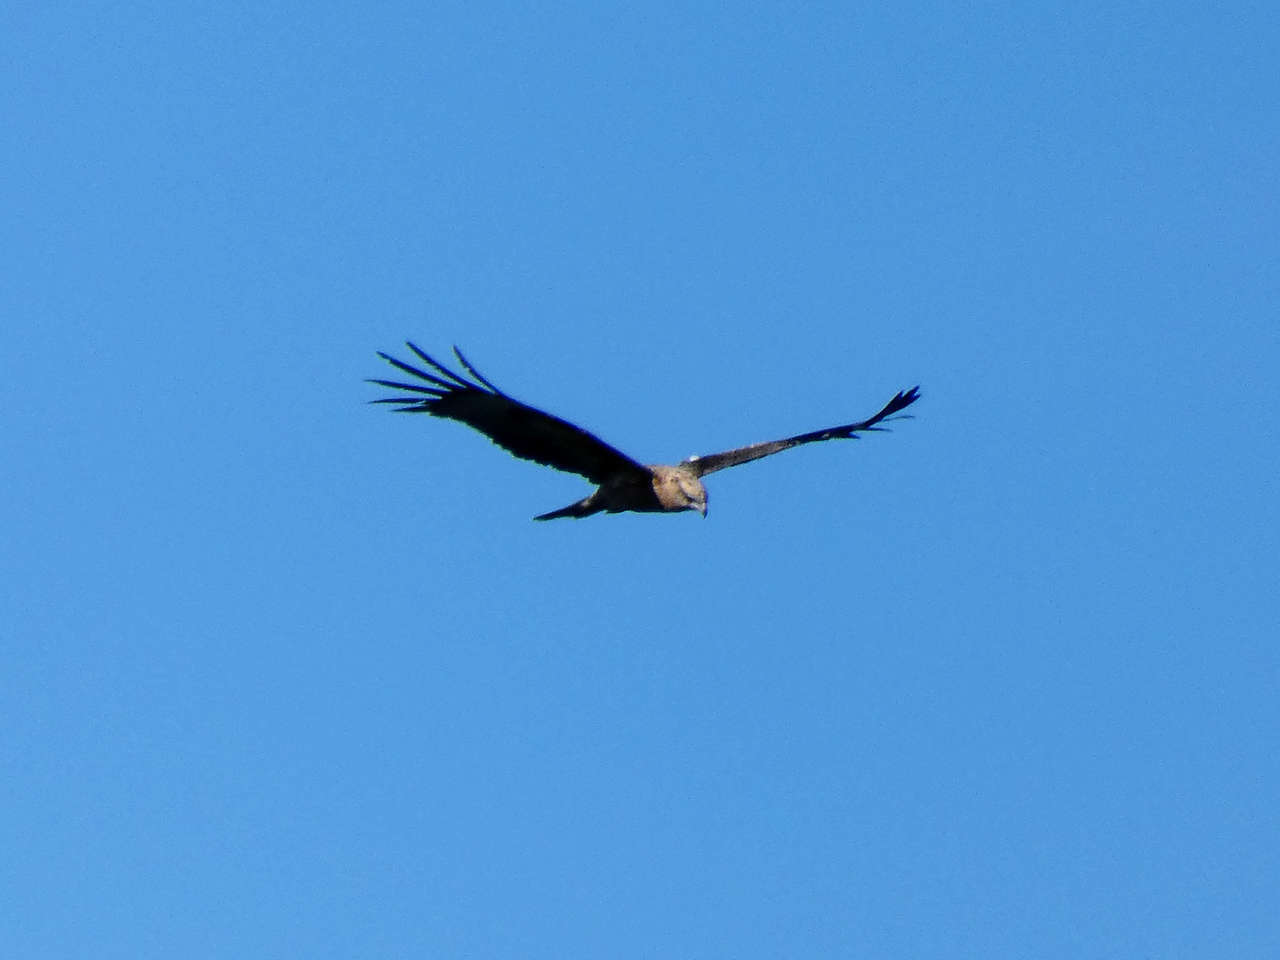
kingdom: Animalia
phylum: Chordata
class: Aves
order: Accipitriformes
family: Accipitridae
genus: Lophoictinia
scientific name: Lophoictinia isura
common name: Square-tailed kite
